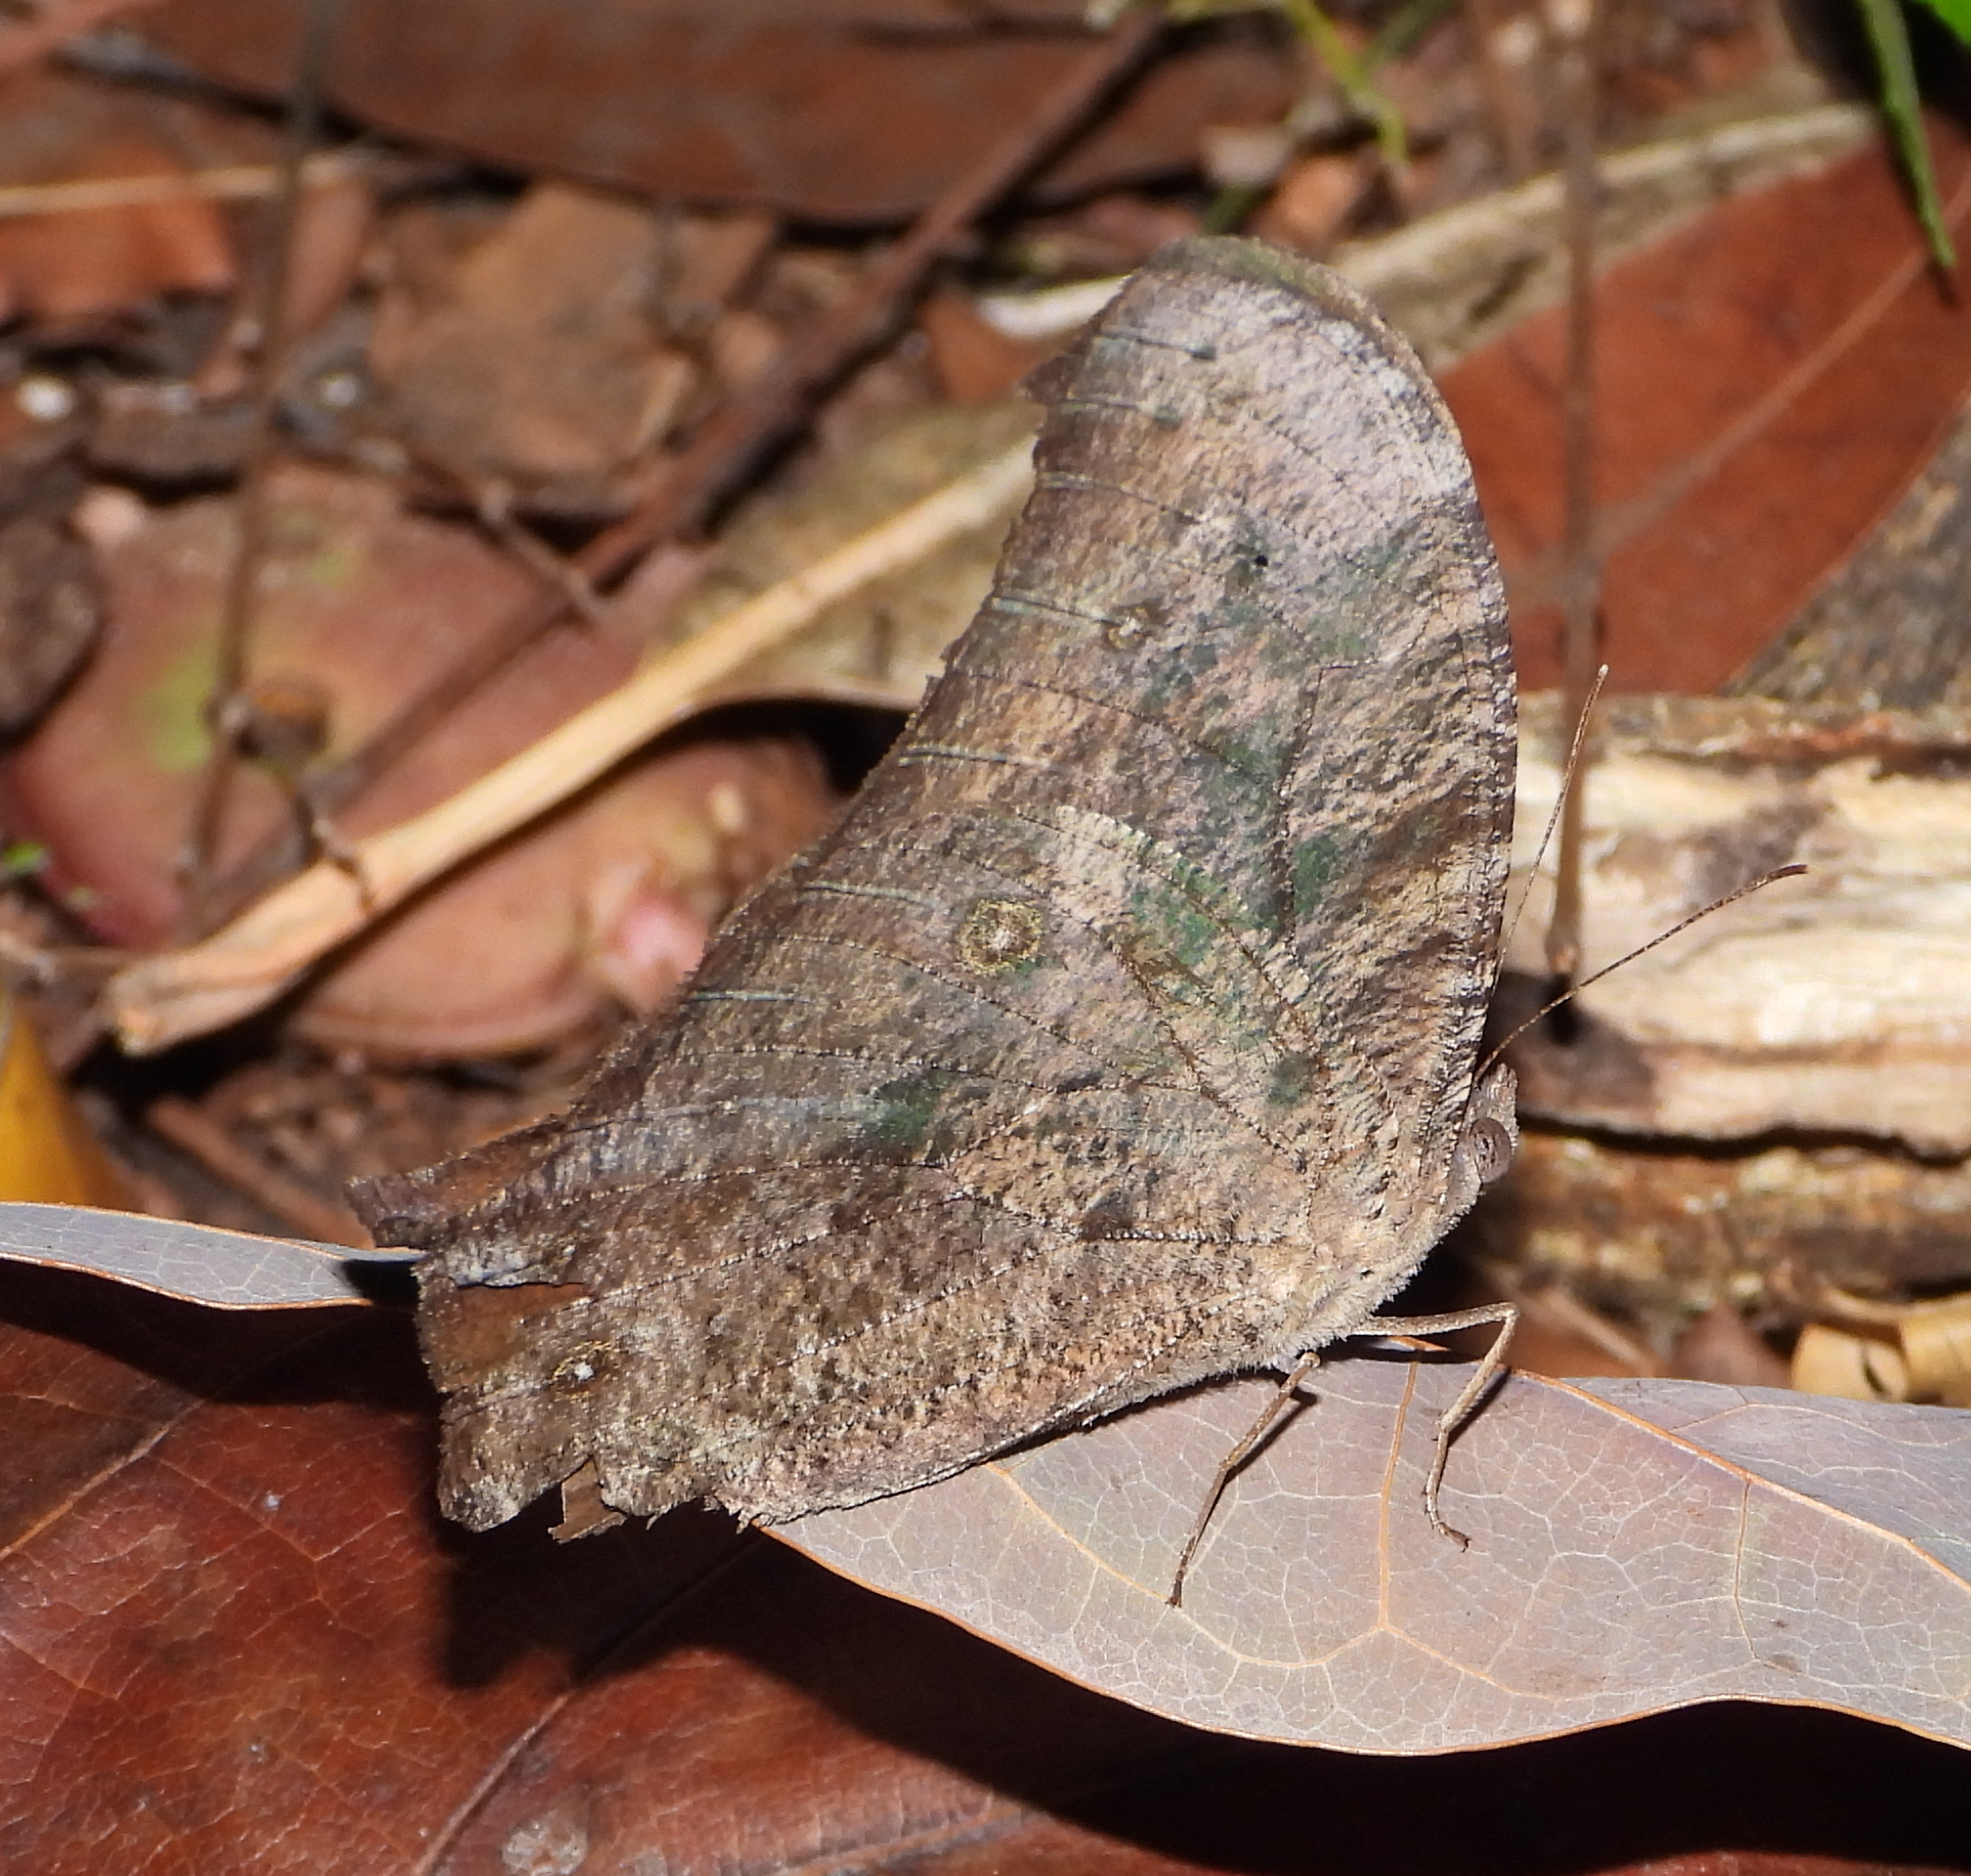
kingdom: Animalia
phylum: Arthropoda
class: Insecta
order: Lepidoptera
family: Nymphalidae
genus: Melanitis
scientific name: Melanitis leda
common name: Twilight brown
